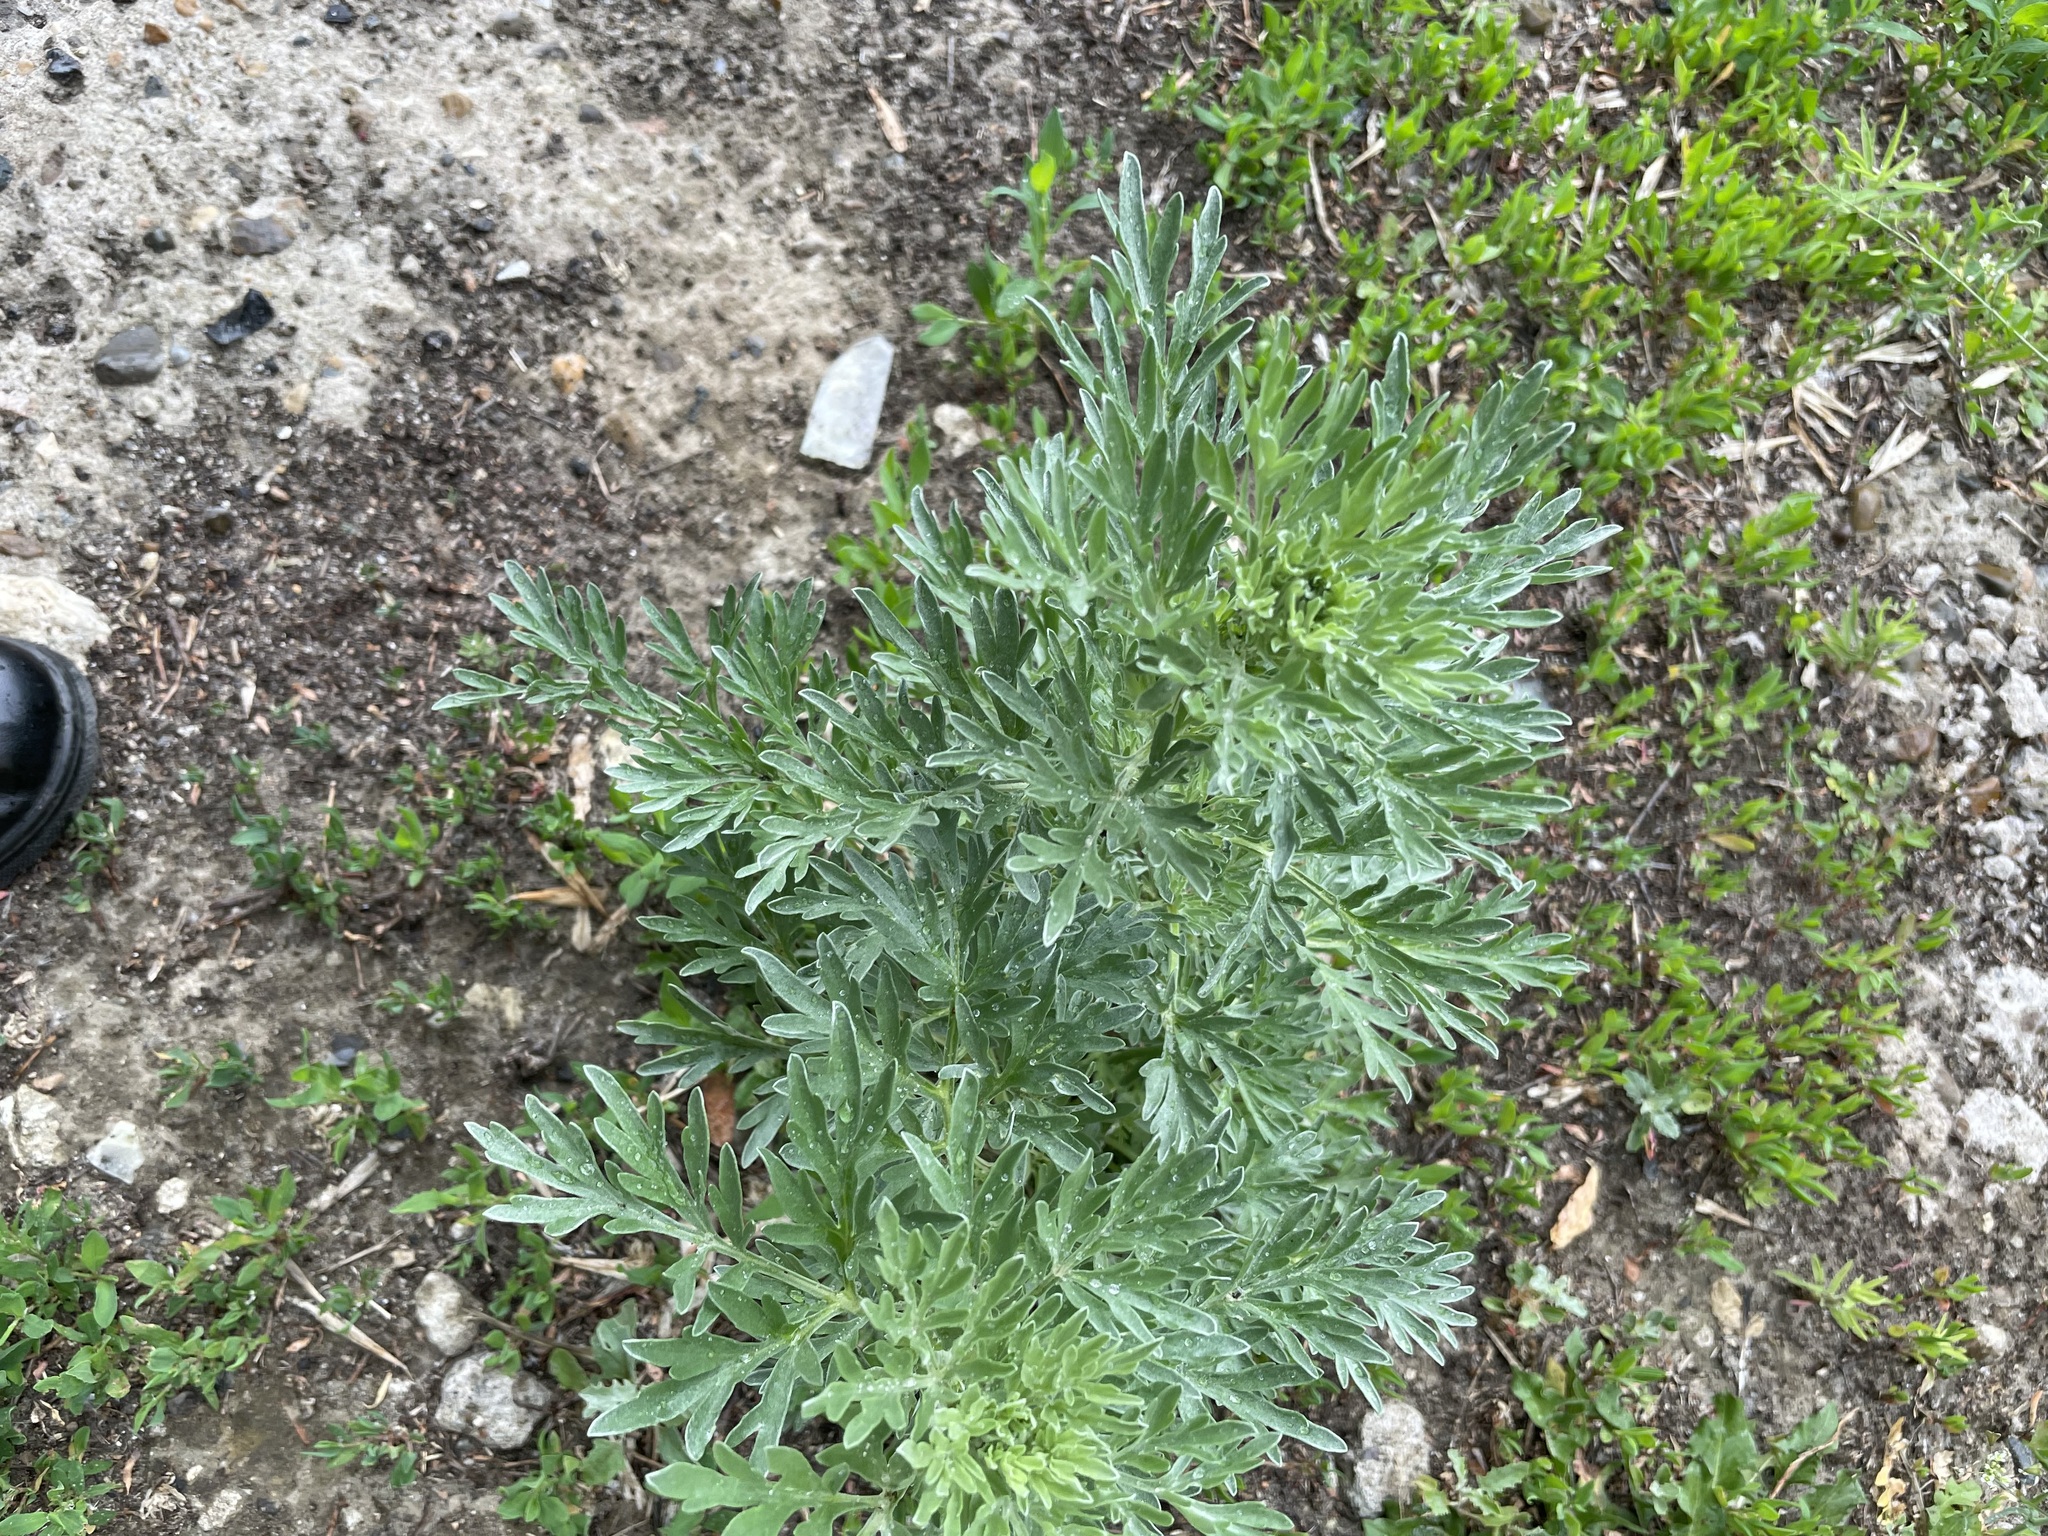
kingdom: Plantae
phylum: Tracheophyta
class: Magnoliopsida
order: Asterales
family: Asteraceae
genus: Artemisia
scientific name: Artemisia absinthium
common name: Wormwood
